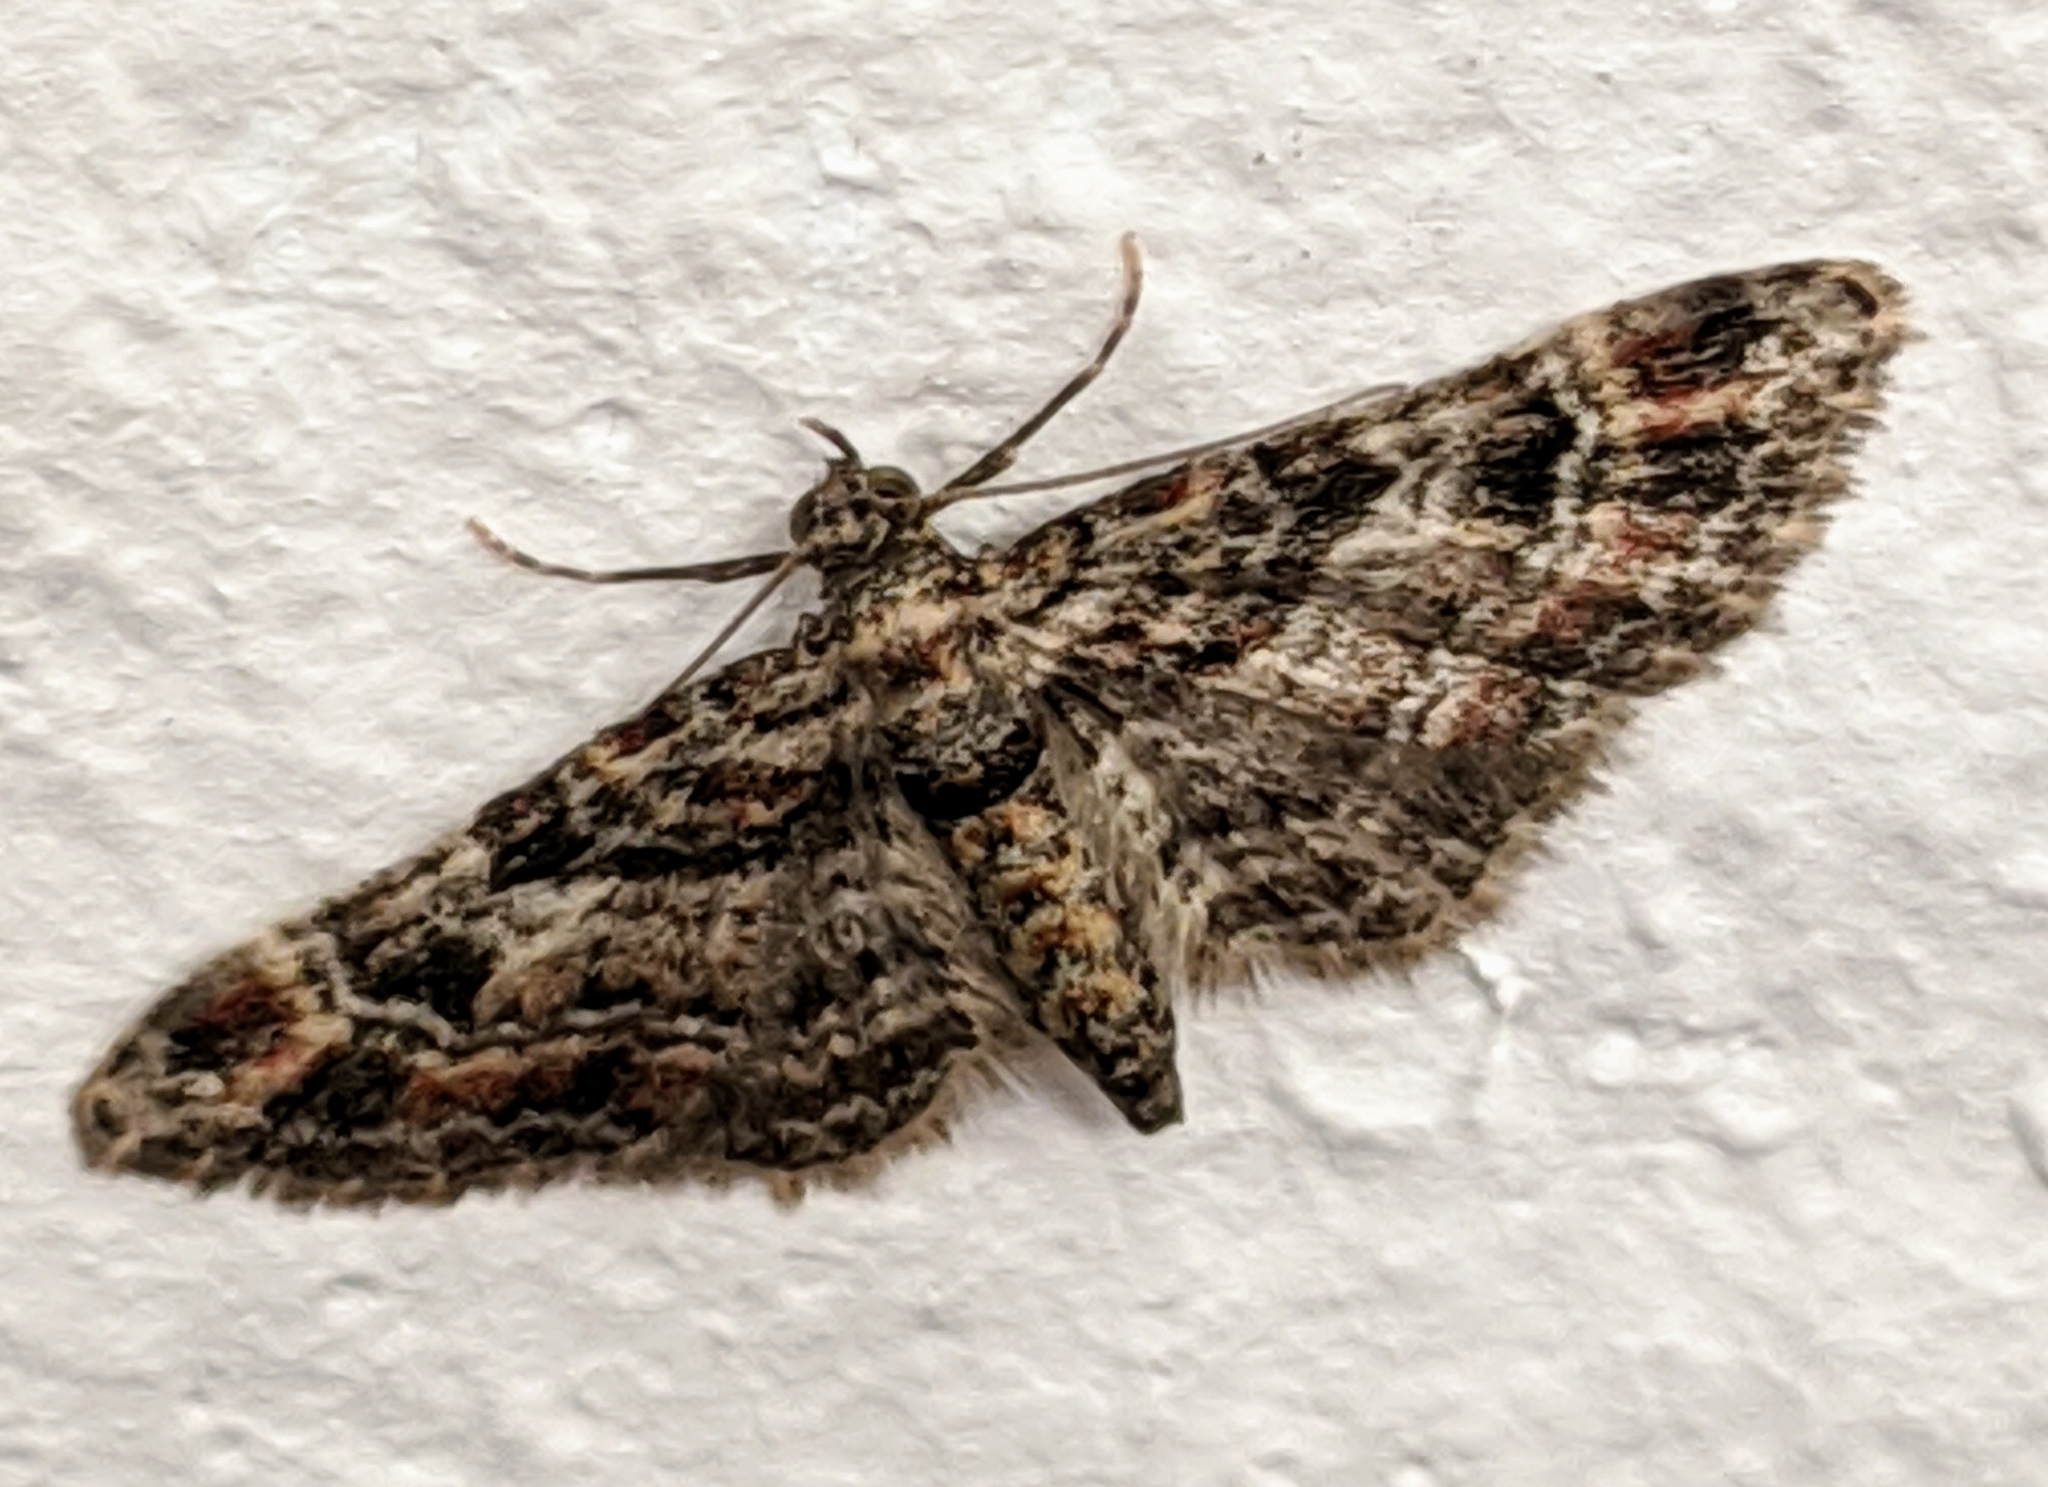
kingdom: Animalia
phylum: Arthropoda
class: Insecta
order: Lepidoptera
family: Geometridae
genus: Gymnoscelis
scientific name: Gymnoscelis rufifasciata
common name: Double-striped pug
